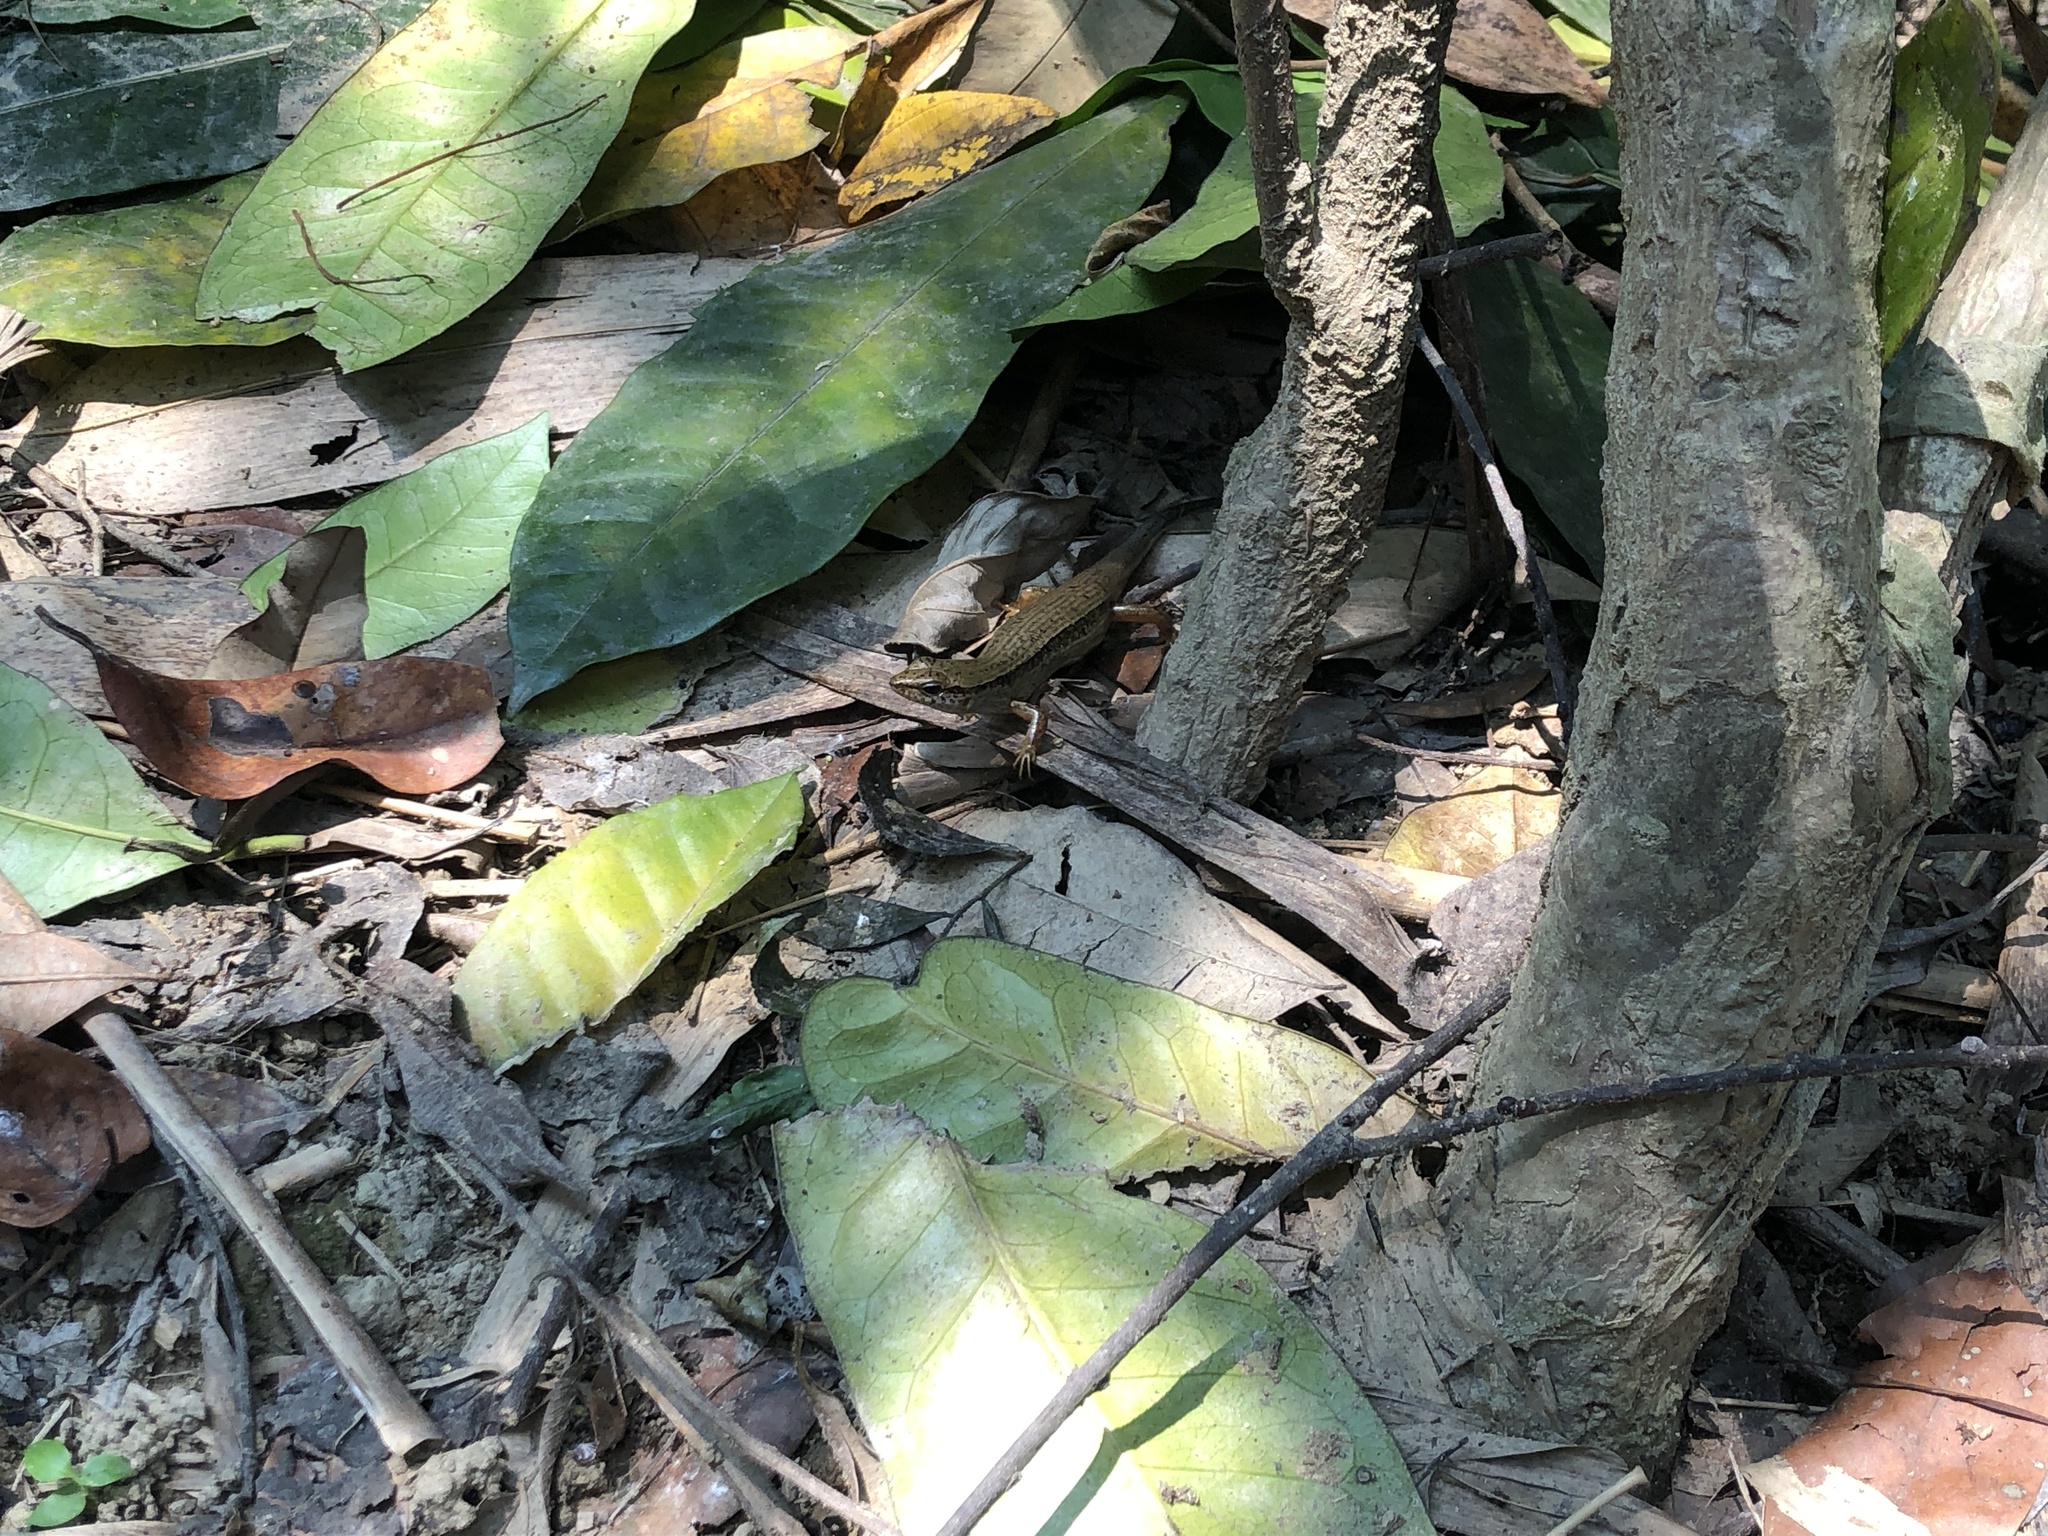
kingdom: Animalia
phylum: Chordata
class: Squamata
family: Scincidae
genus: Plestiodon
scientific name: Plestiodon elegans
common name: Shanghai elegant skink
